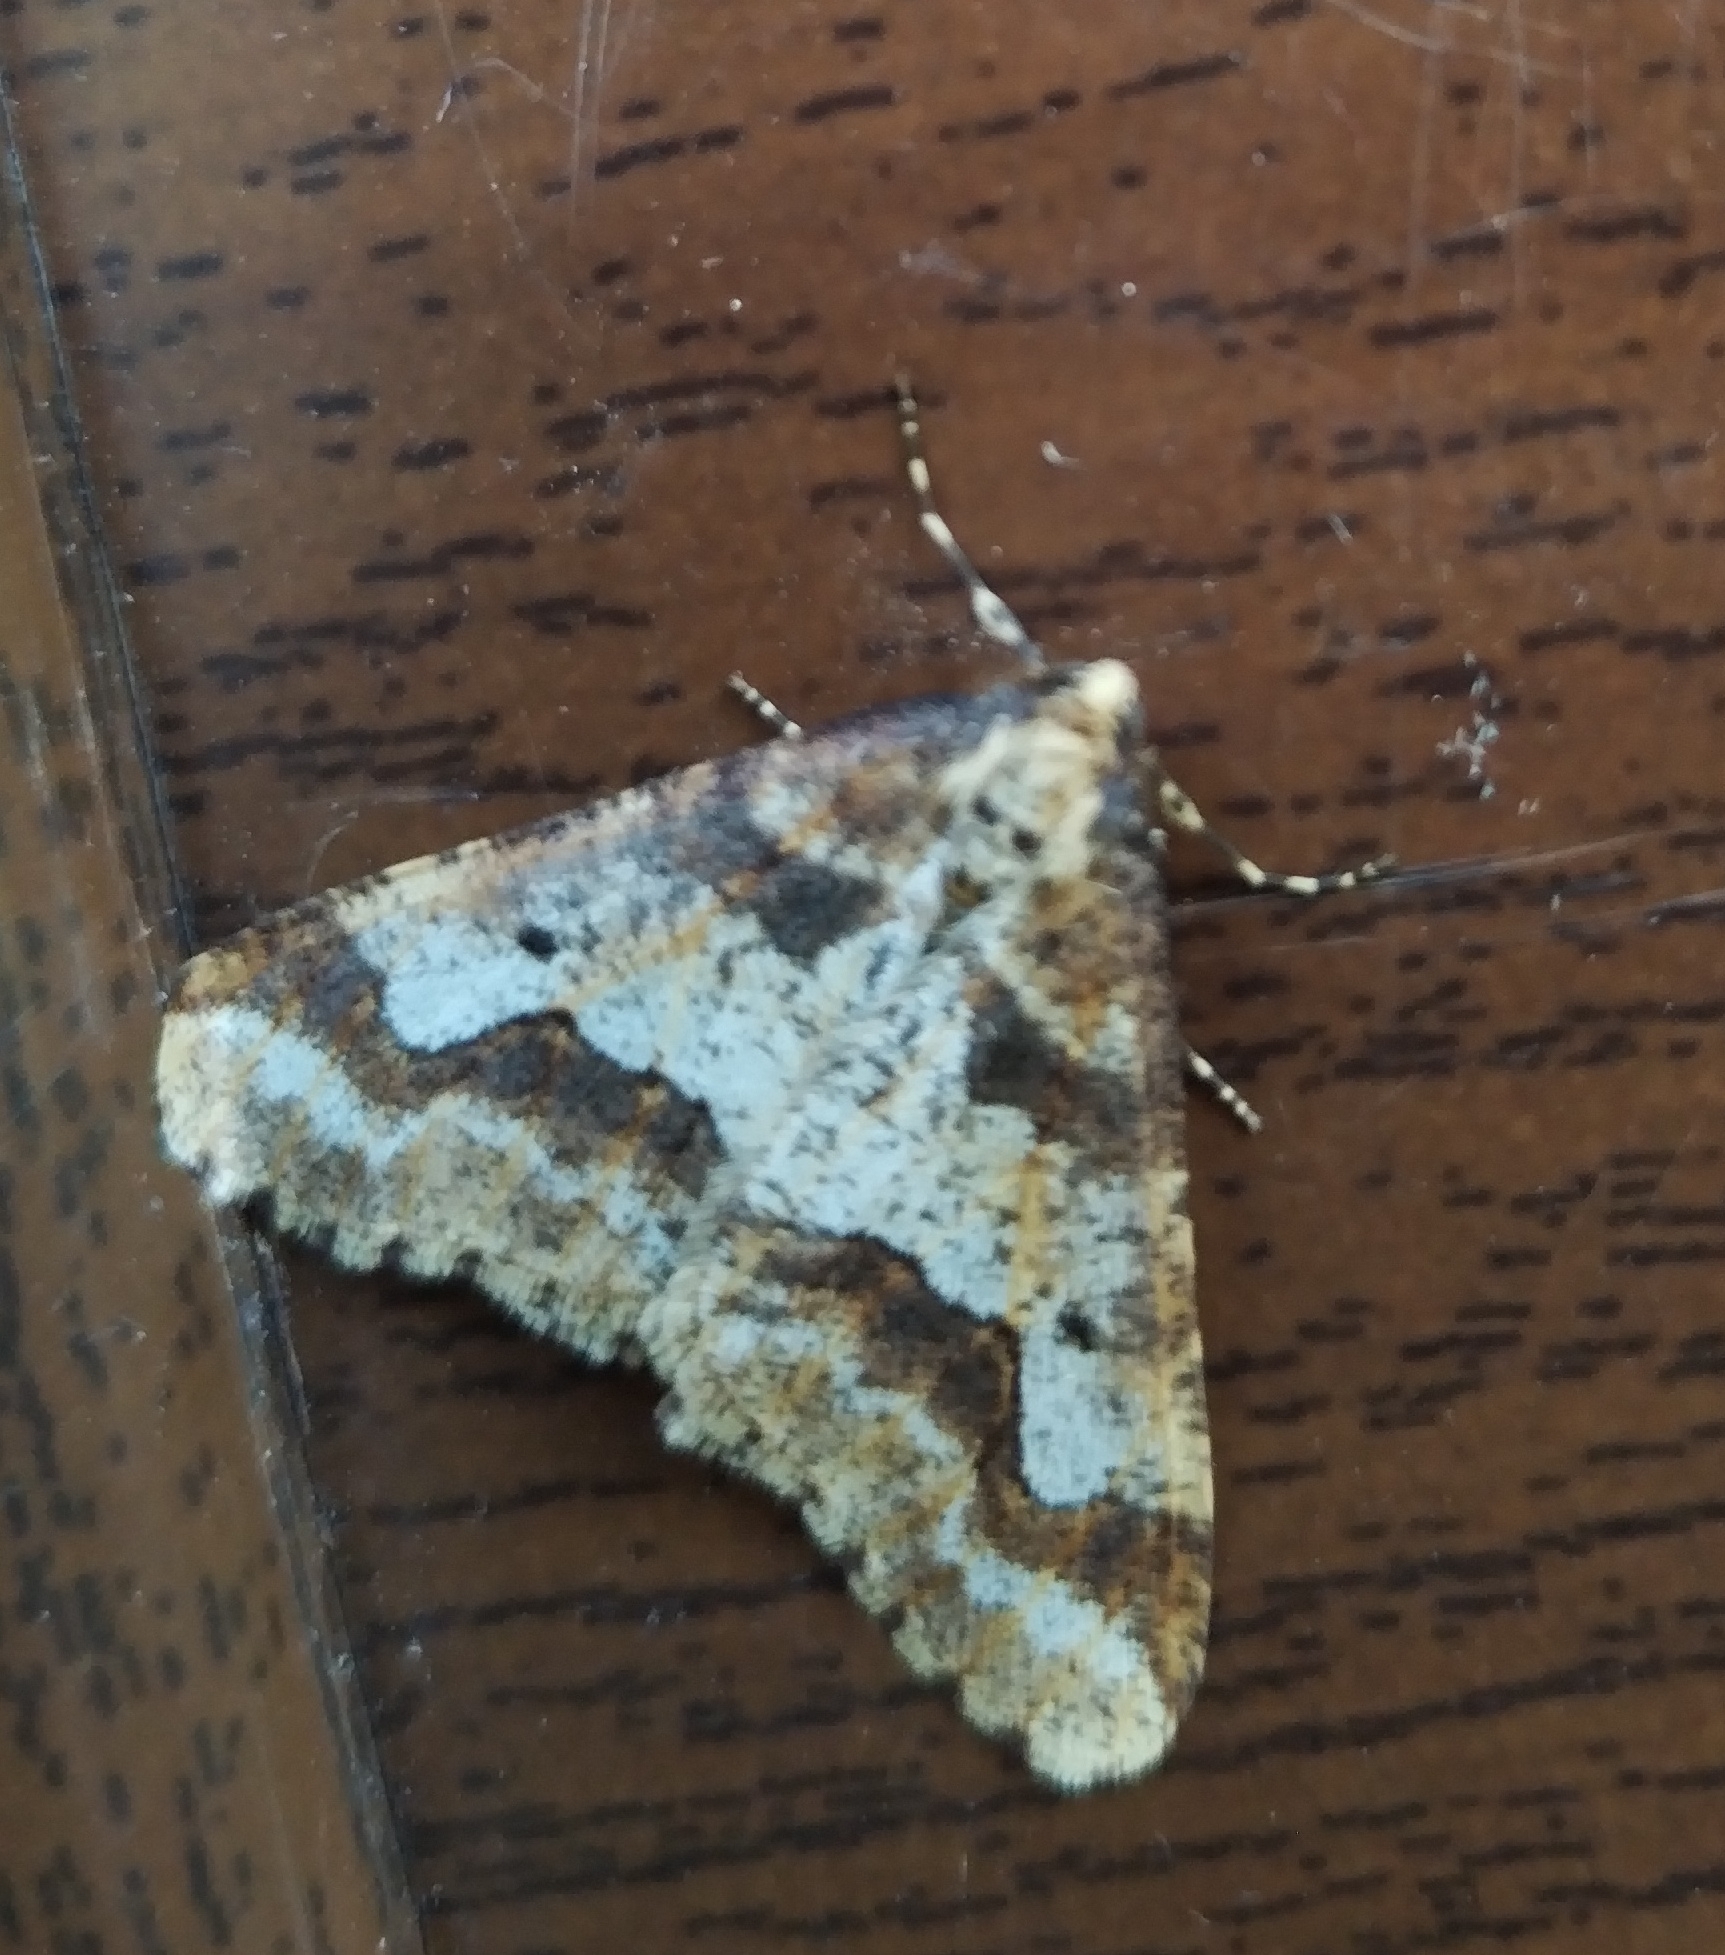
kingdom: Animalia
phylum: Arthropoda
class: Insecta
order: Lepidoptera
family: Geometridae
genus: Erannis
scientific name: Erannis defoliaria
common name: Mottled umber
